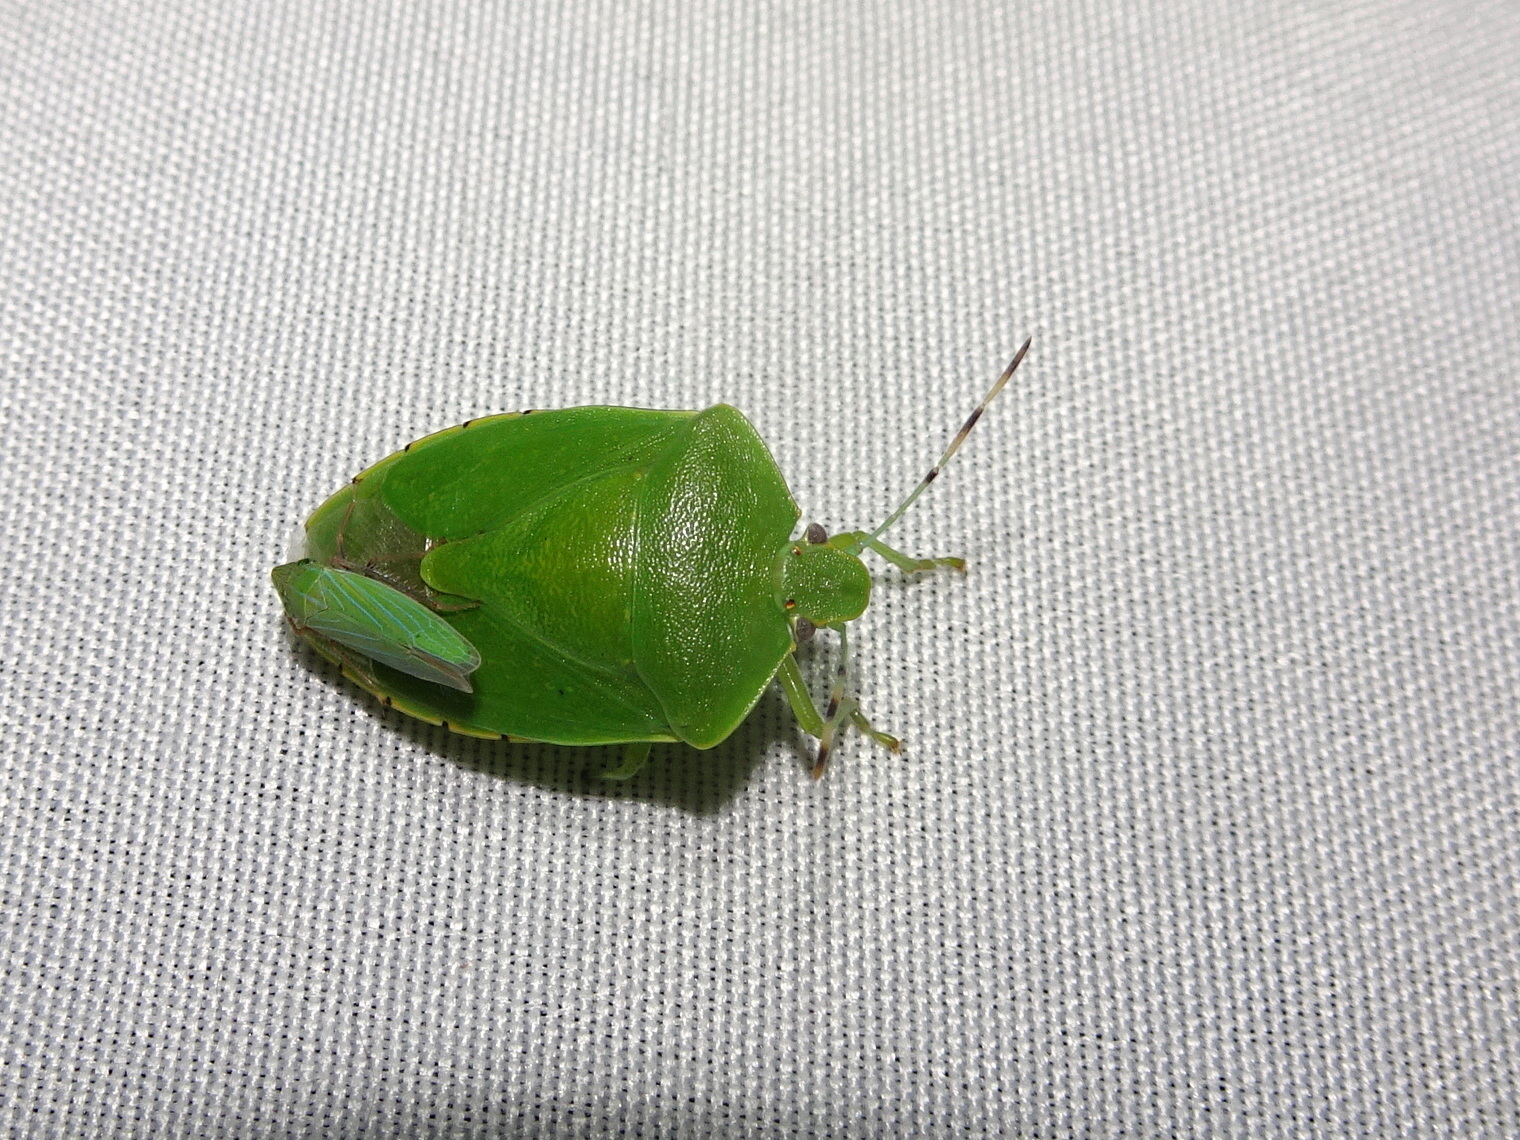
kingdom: Animalia
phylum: Arthropoda
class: Insecta
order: Hemiptera
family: Pentatomidae
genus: Chinavia
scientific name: Chinavia hilaris
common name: Green stink bug
